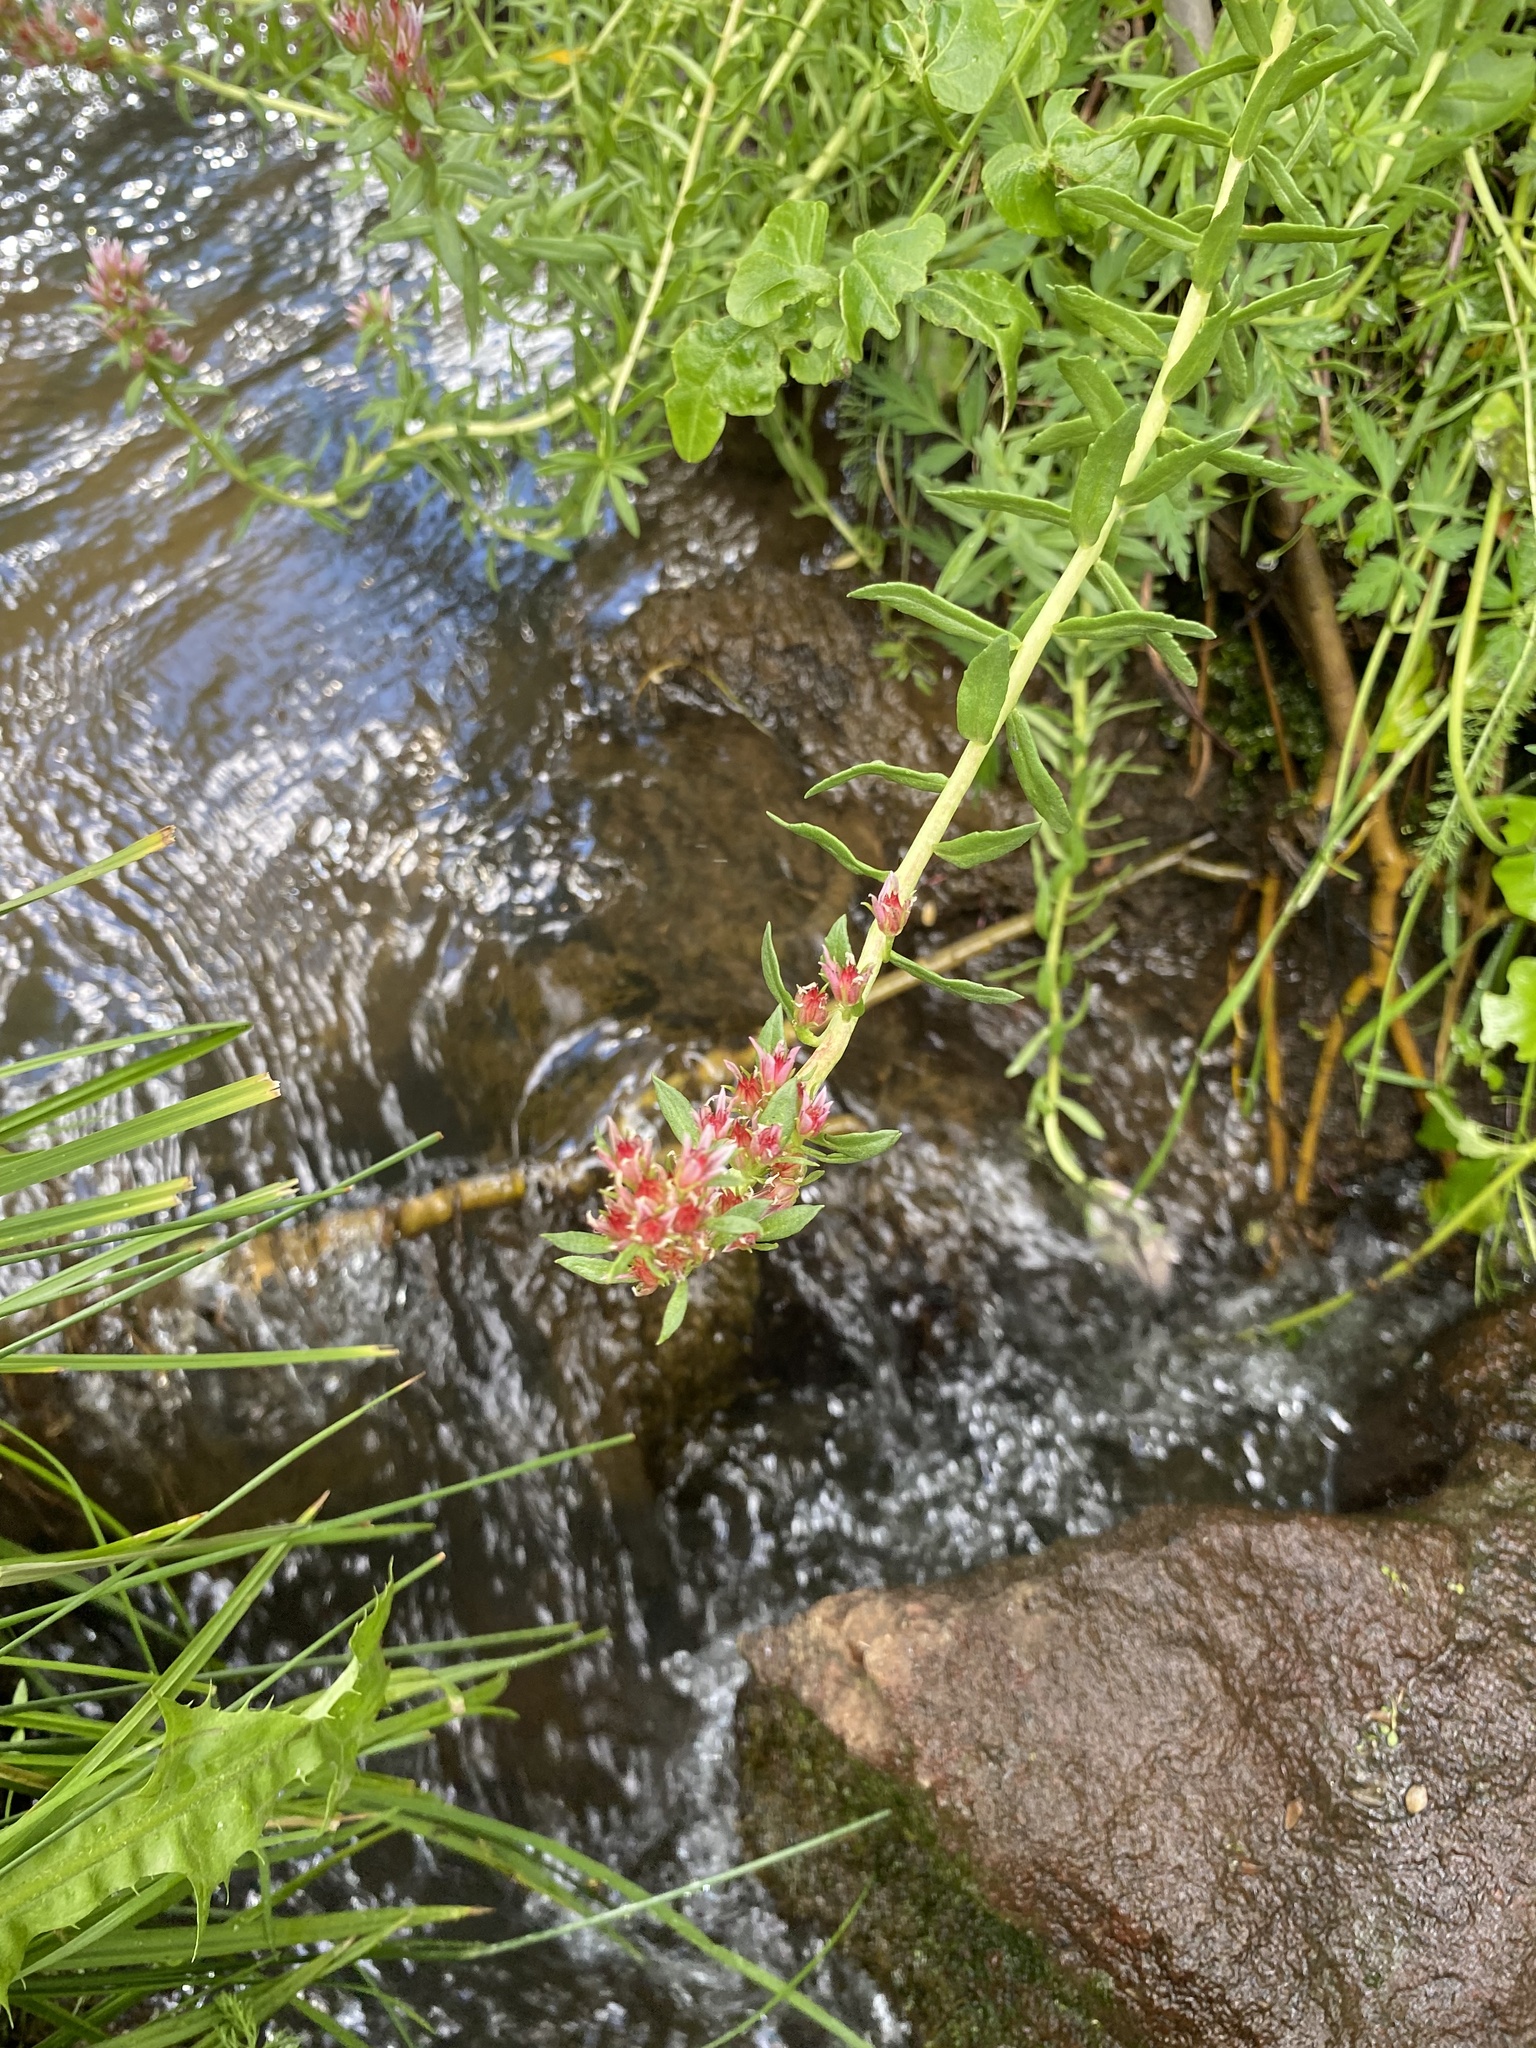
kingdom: Plantae
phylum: Tracheophyta
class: Magnoliopsida
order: Saxifragales
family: Crassulaceae
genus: Rhodiola
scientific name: Rhodiola rhodantha
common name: Red orpine
